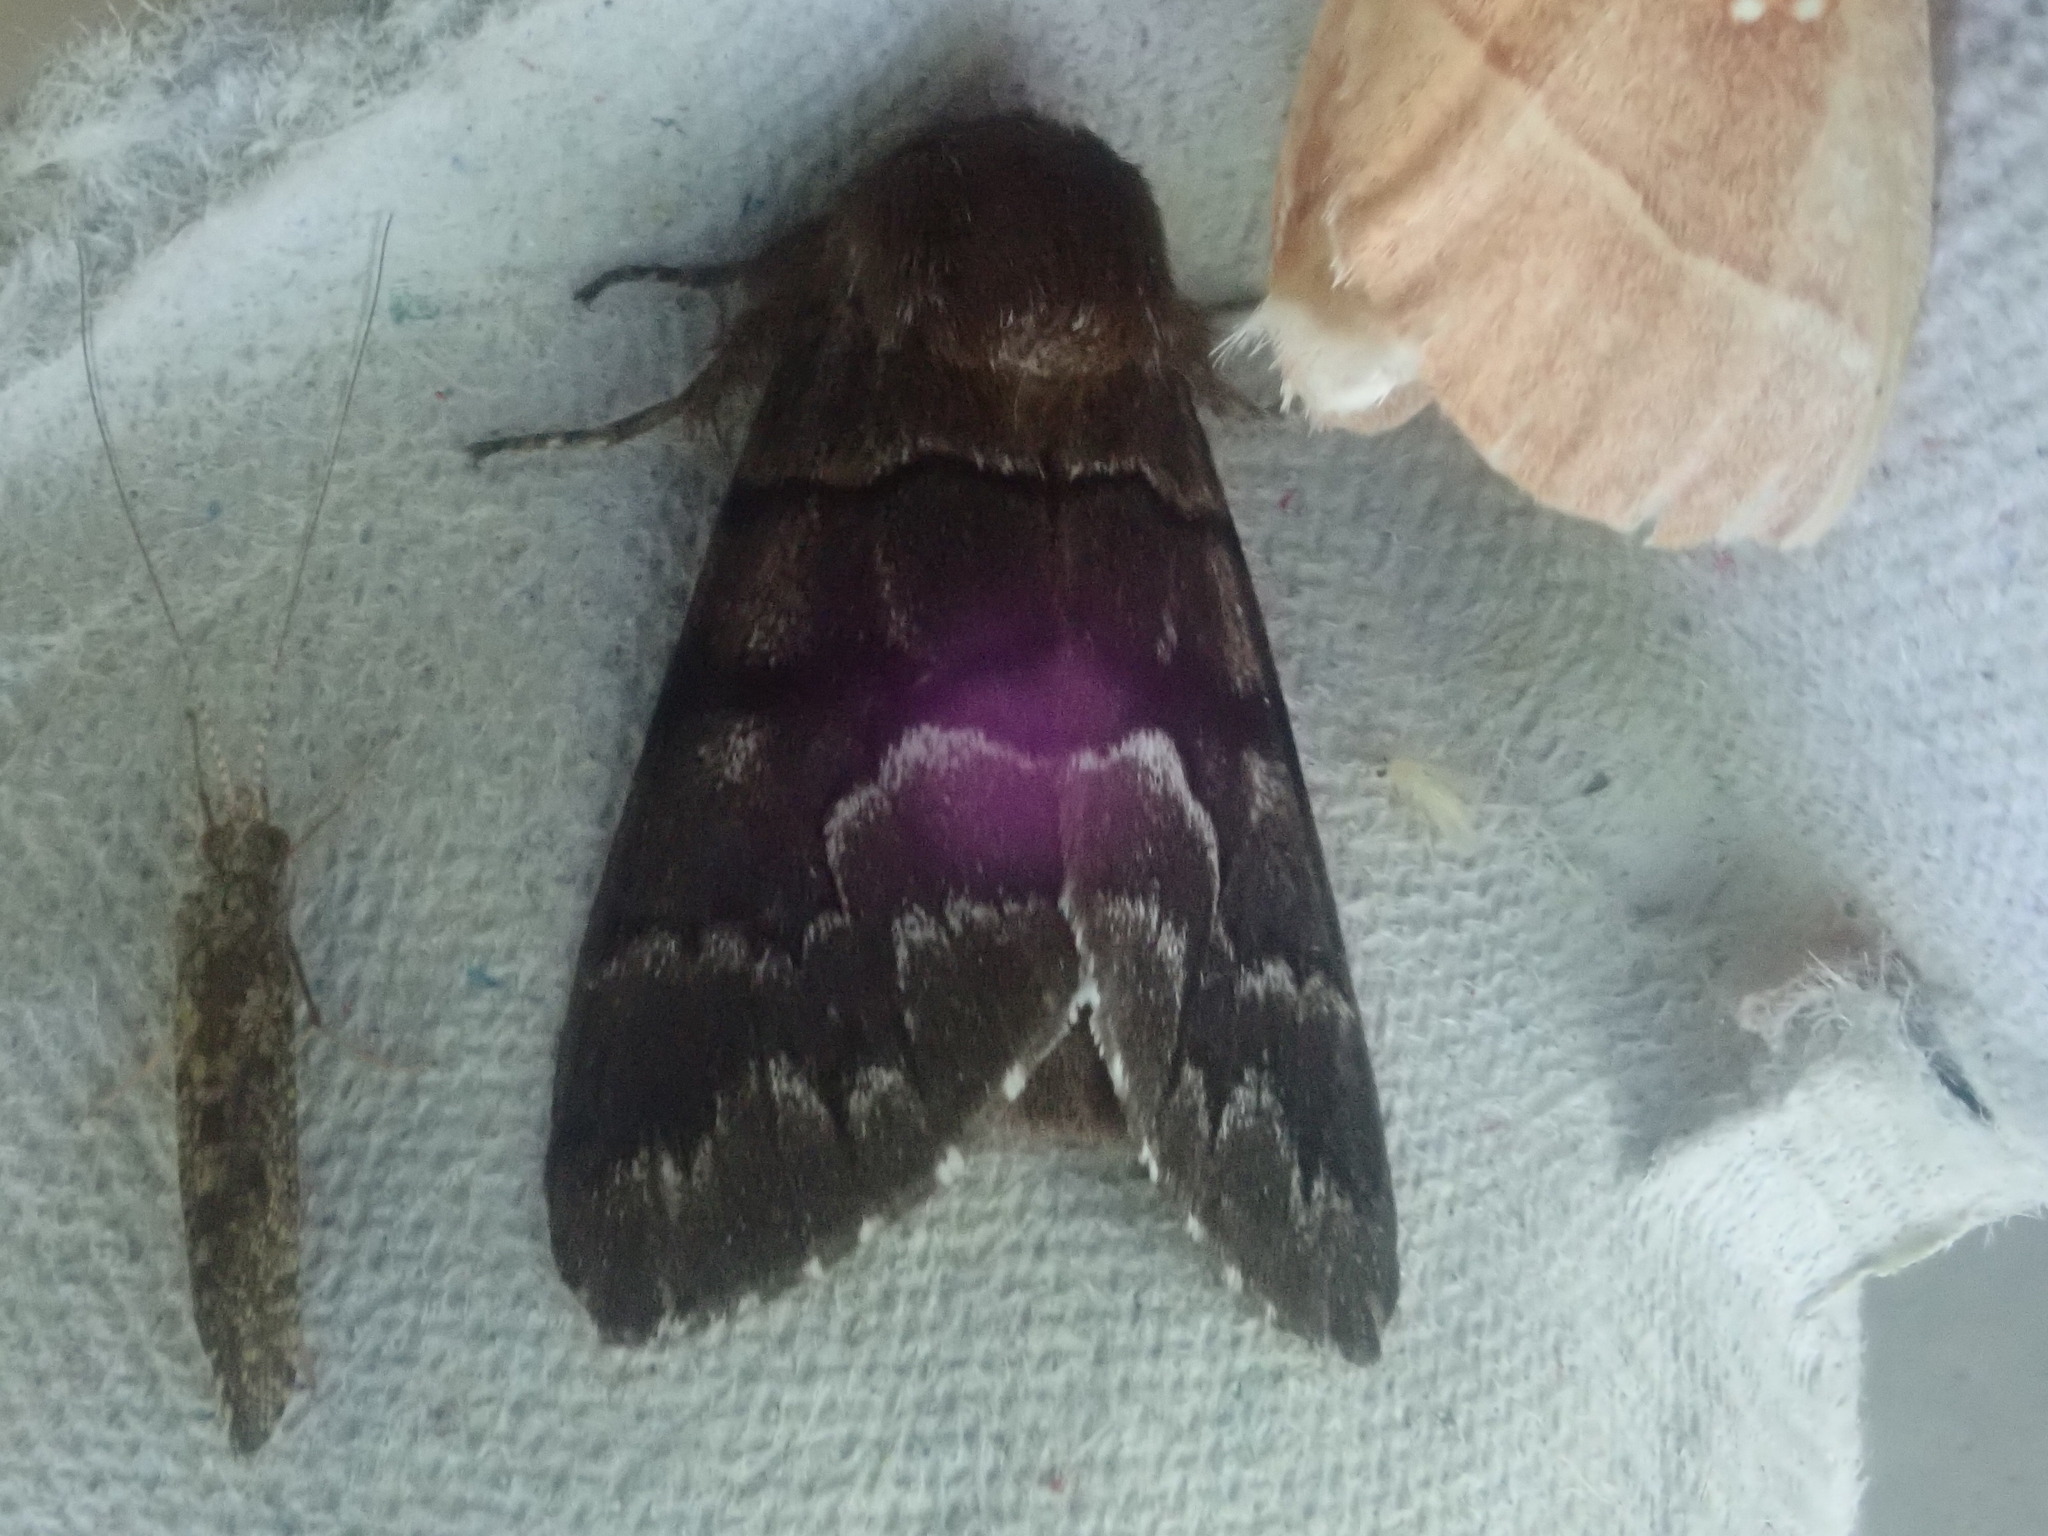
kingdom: Animalia
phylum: Arthropoda
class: Insecta
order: Lepidoptera
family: Noctuidae
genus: Panthea
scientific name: Panthea furcilla
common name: Eastern panthea moth
